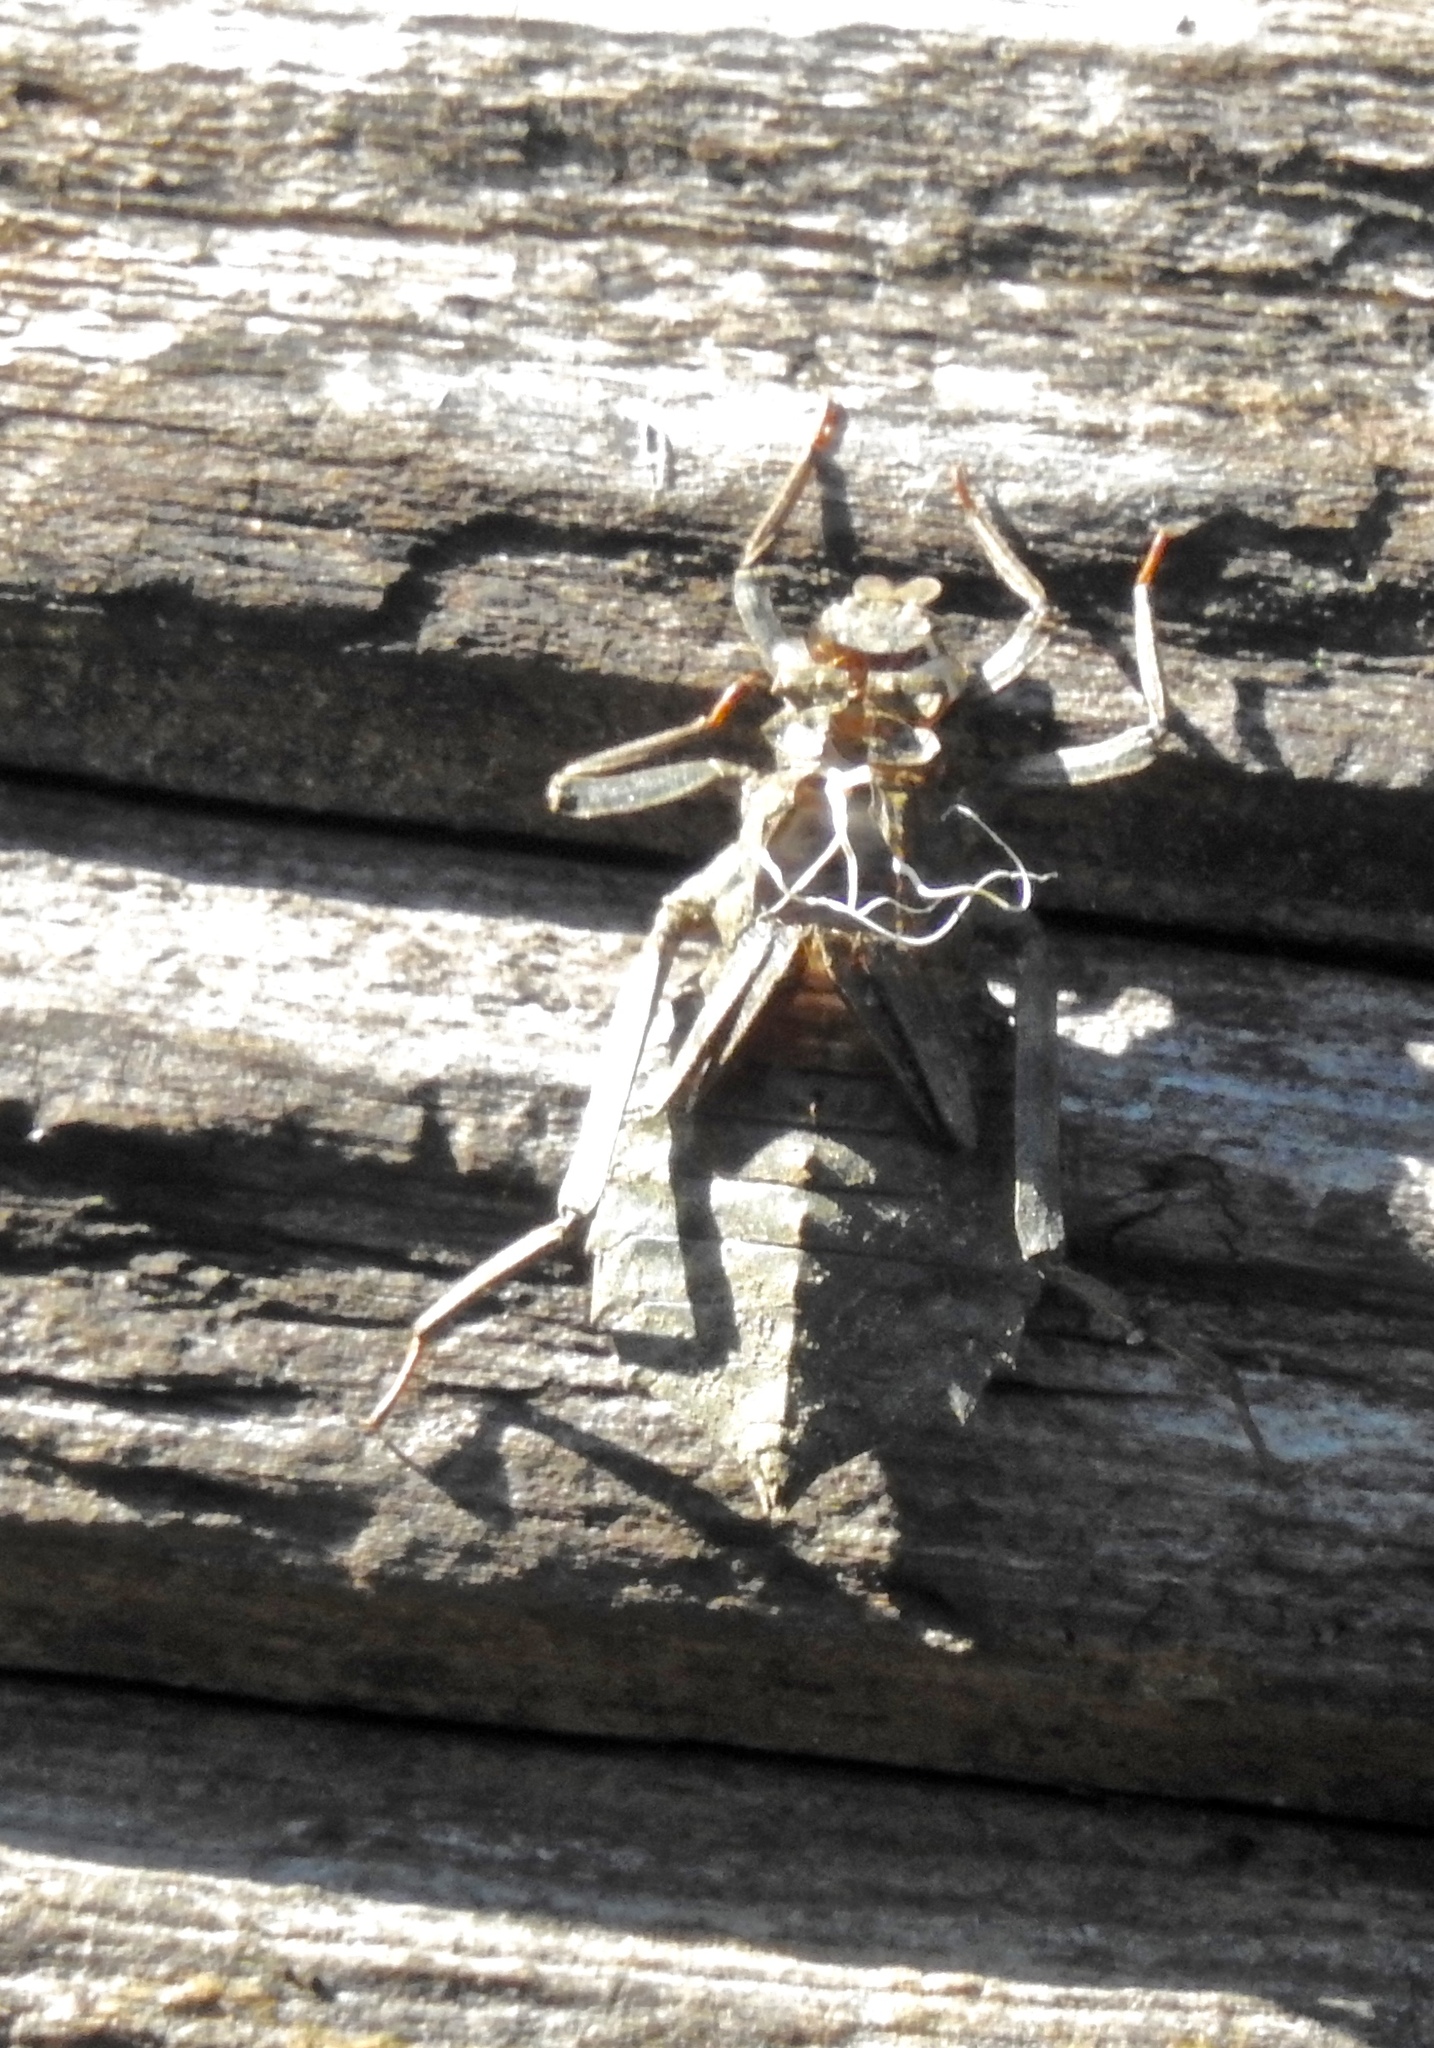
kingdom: Animalia
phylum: Arthropoda
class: Insecta
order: Odonata
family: Gomphidae
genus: Hagenius
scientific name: Hagenius brevistylus
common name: Dragonhunter
